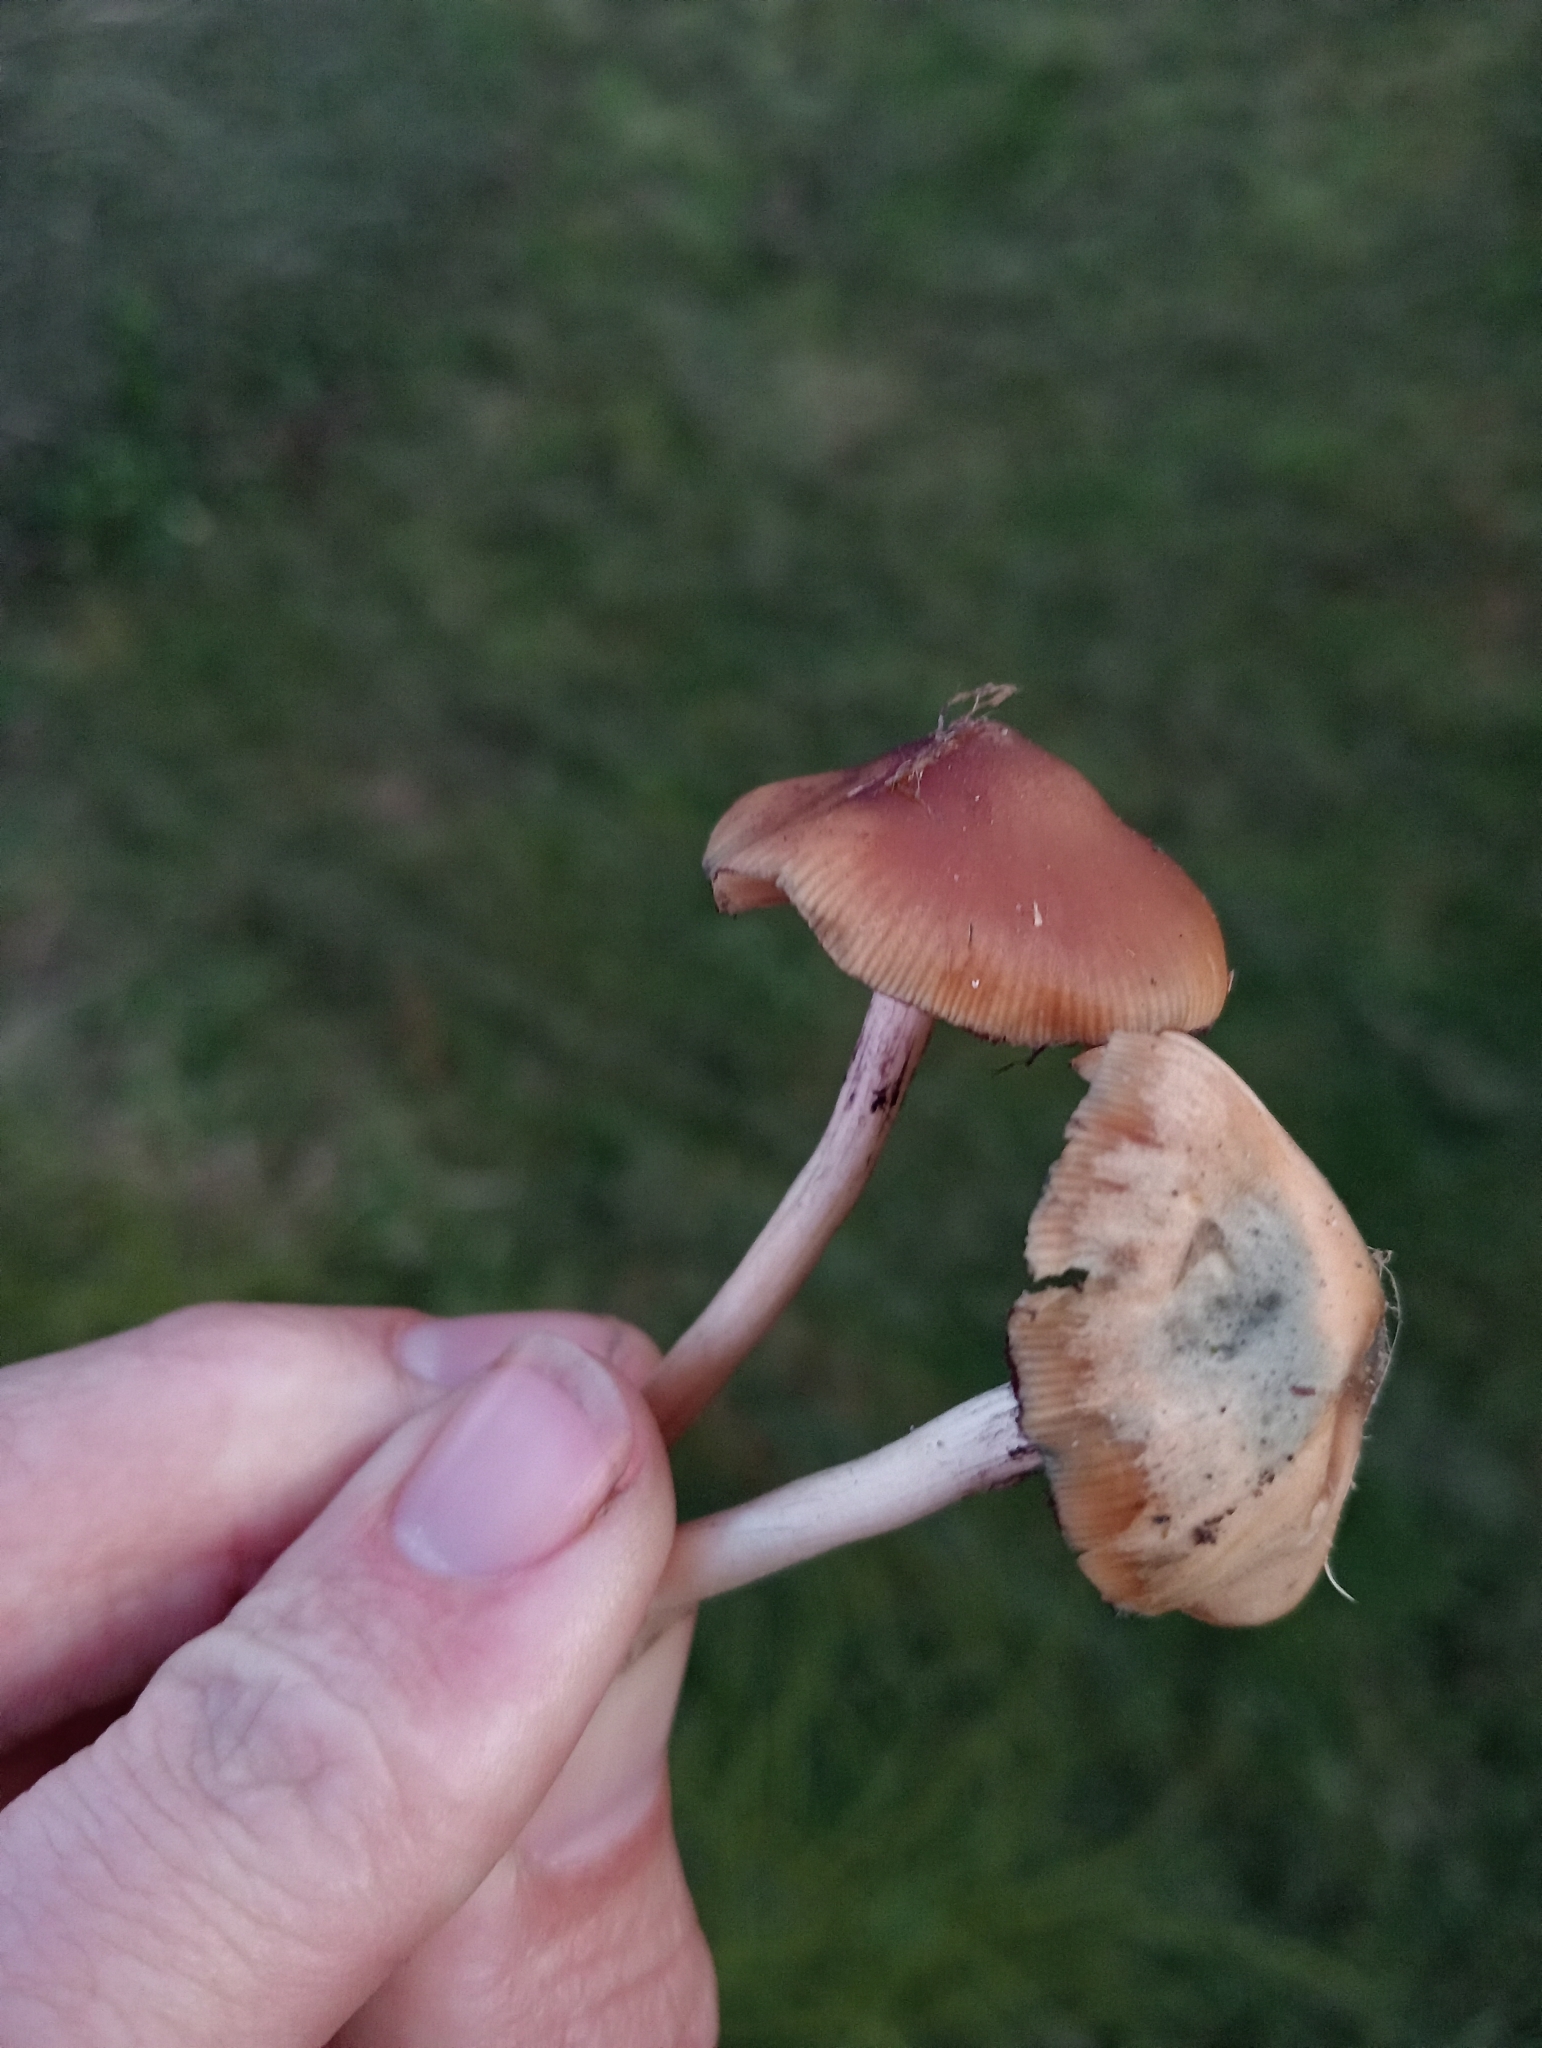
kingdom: Fungi
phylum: Basidiomycota
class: Agaricomycetes
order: Agaricales
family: Hymenogastraceae
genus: Psilocybe
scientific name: Psilocybe subaeruginosa
